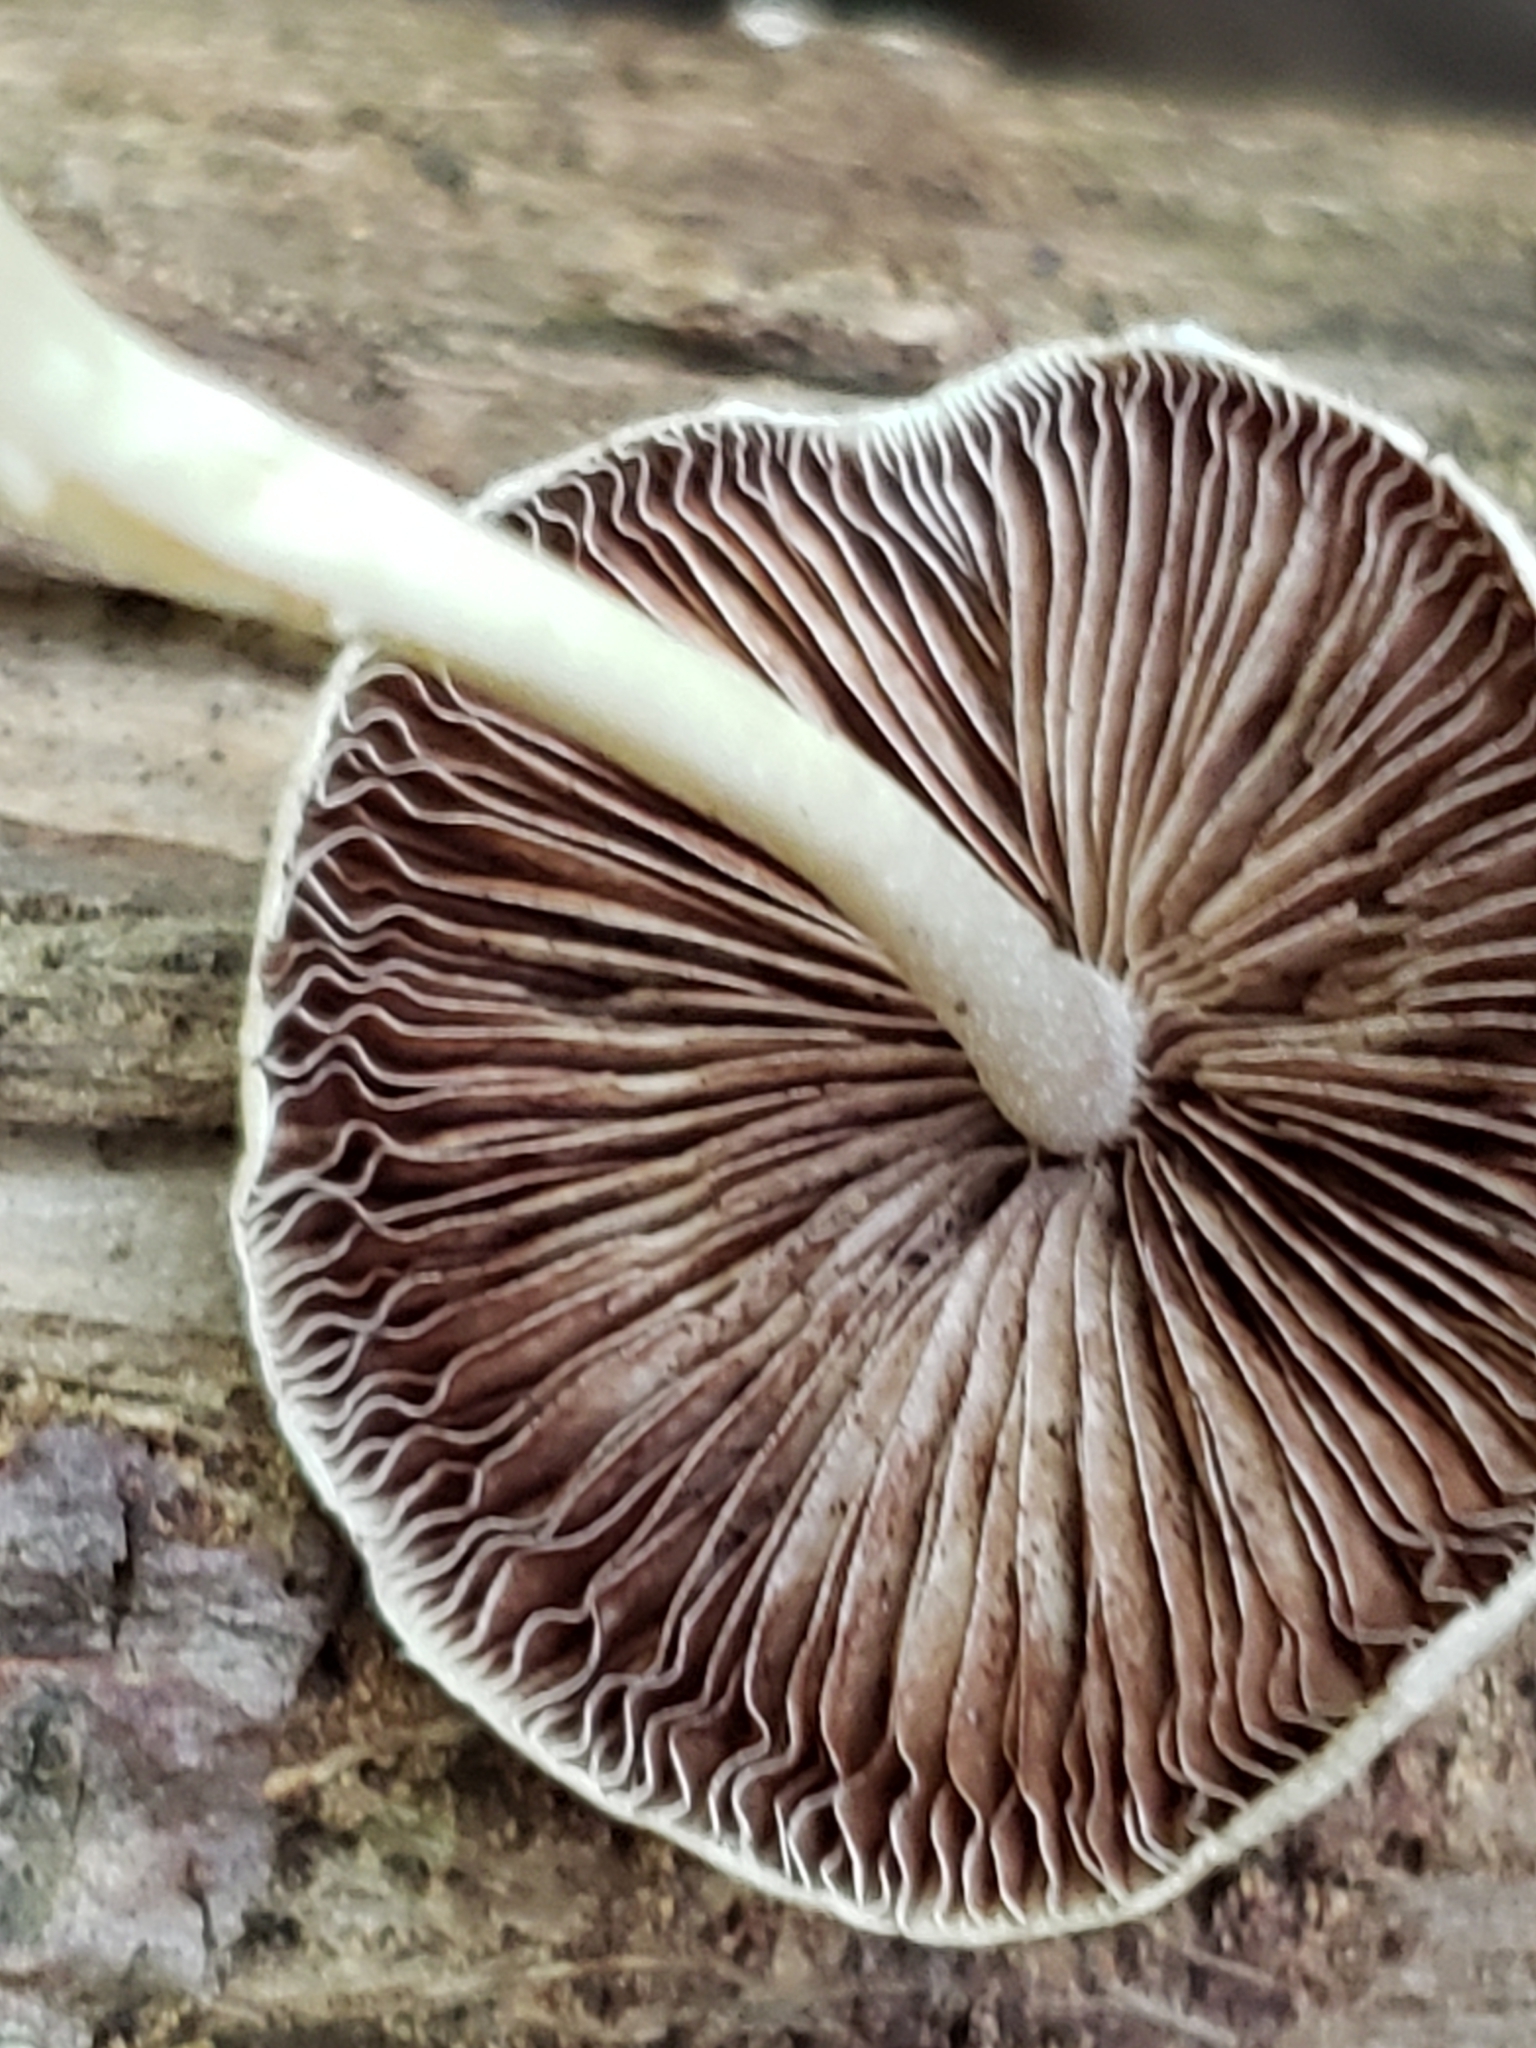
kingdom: Fungi
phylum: Basidiomycota
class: Agaricomycetes
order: Agaricales
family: Psathyrellaceae
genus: Candolleomyces
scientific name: Candolleomyces candolleanus
